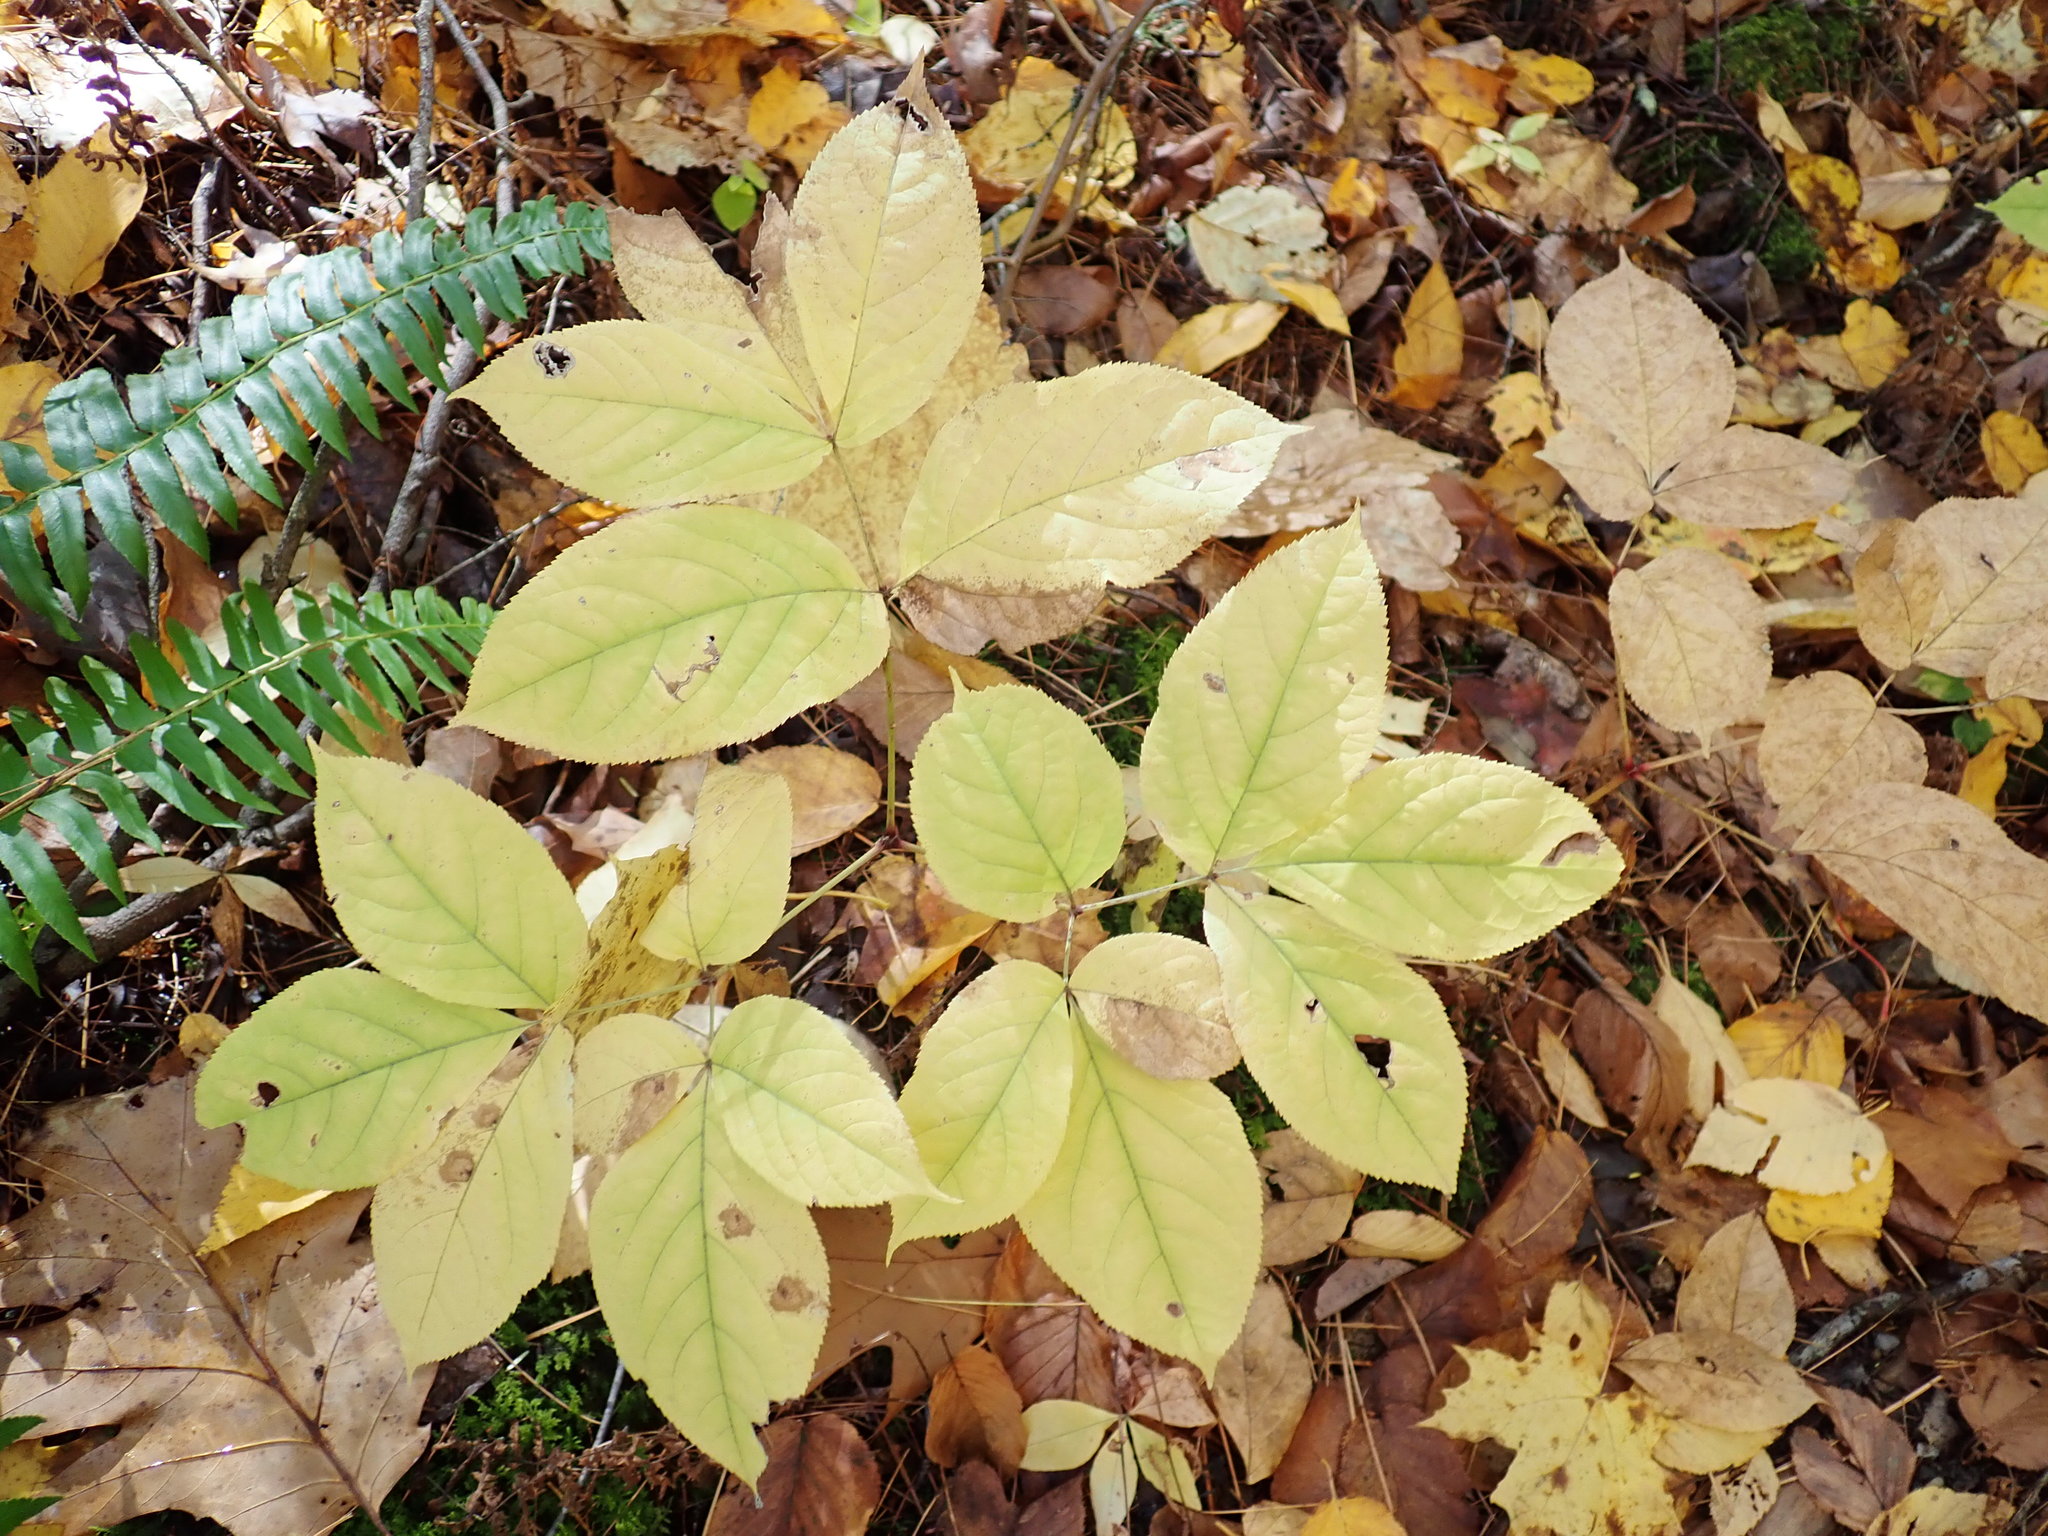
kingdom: Plantae
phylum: Tracheophyta
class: Magnoliopsida
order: Apiales
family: Araliaceae
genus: Aralia
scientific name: Aralia nudicaulis
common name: Wild sarsaparilla
